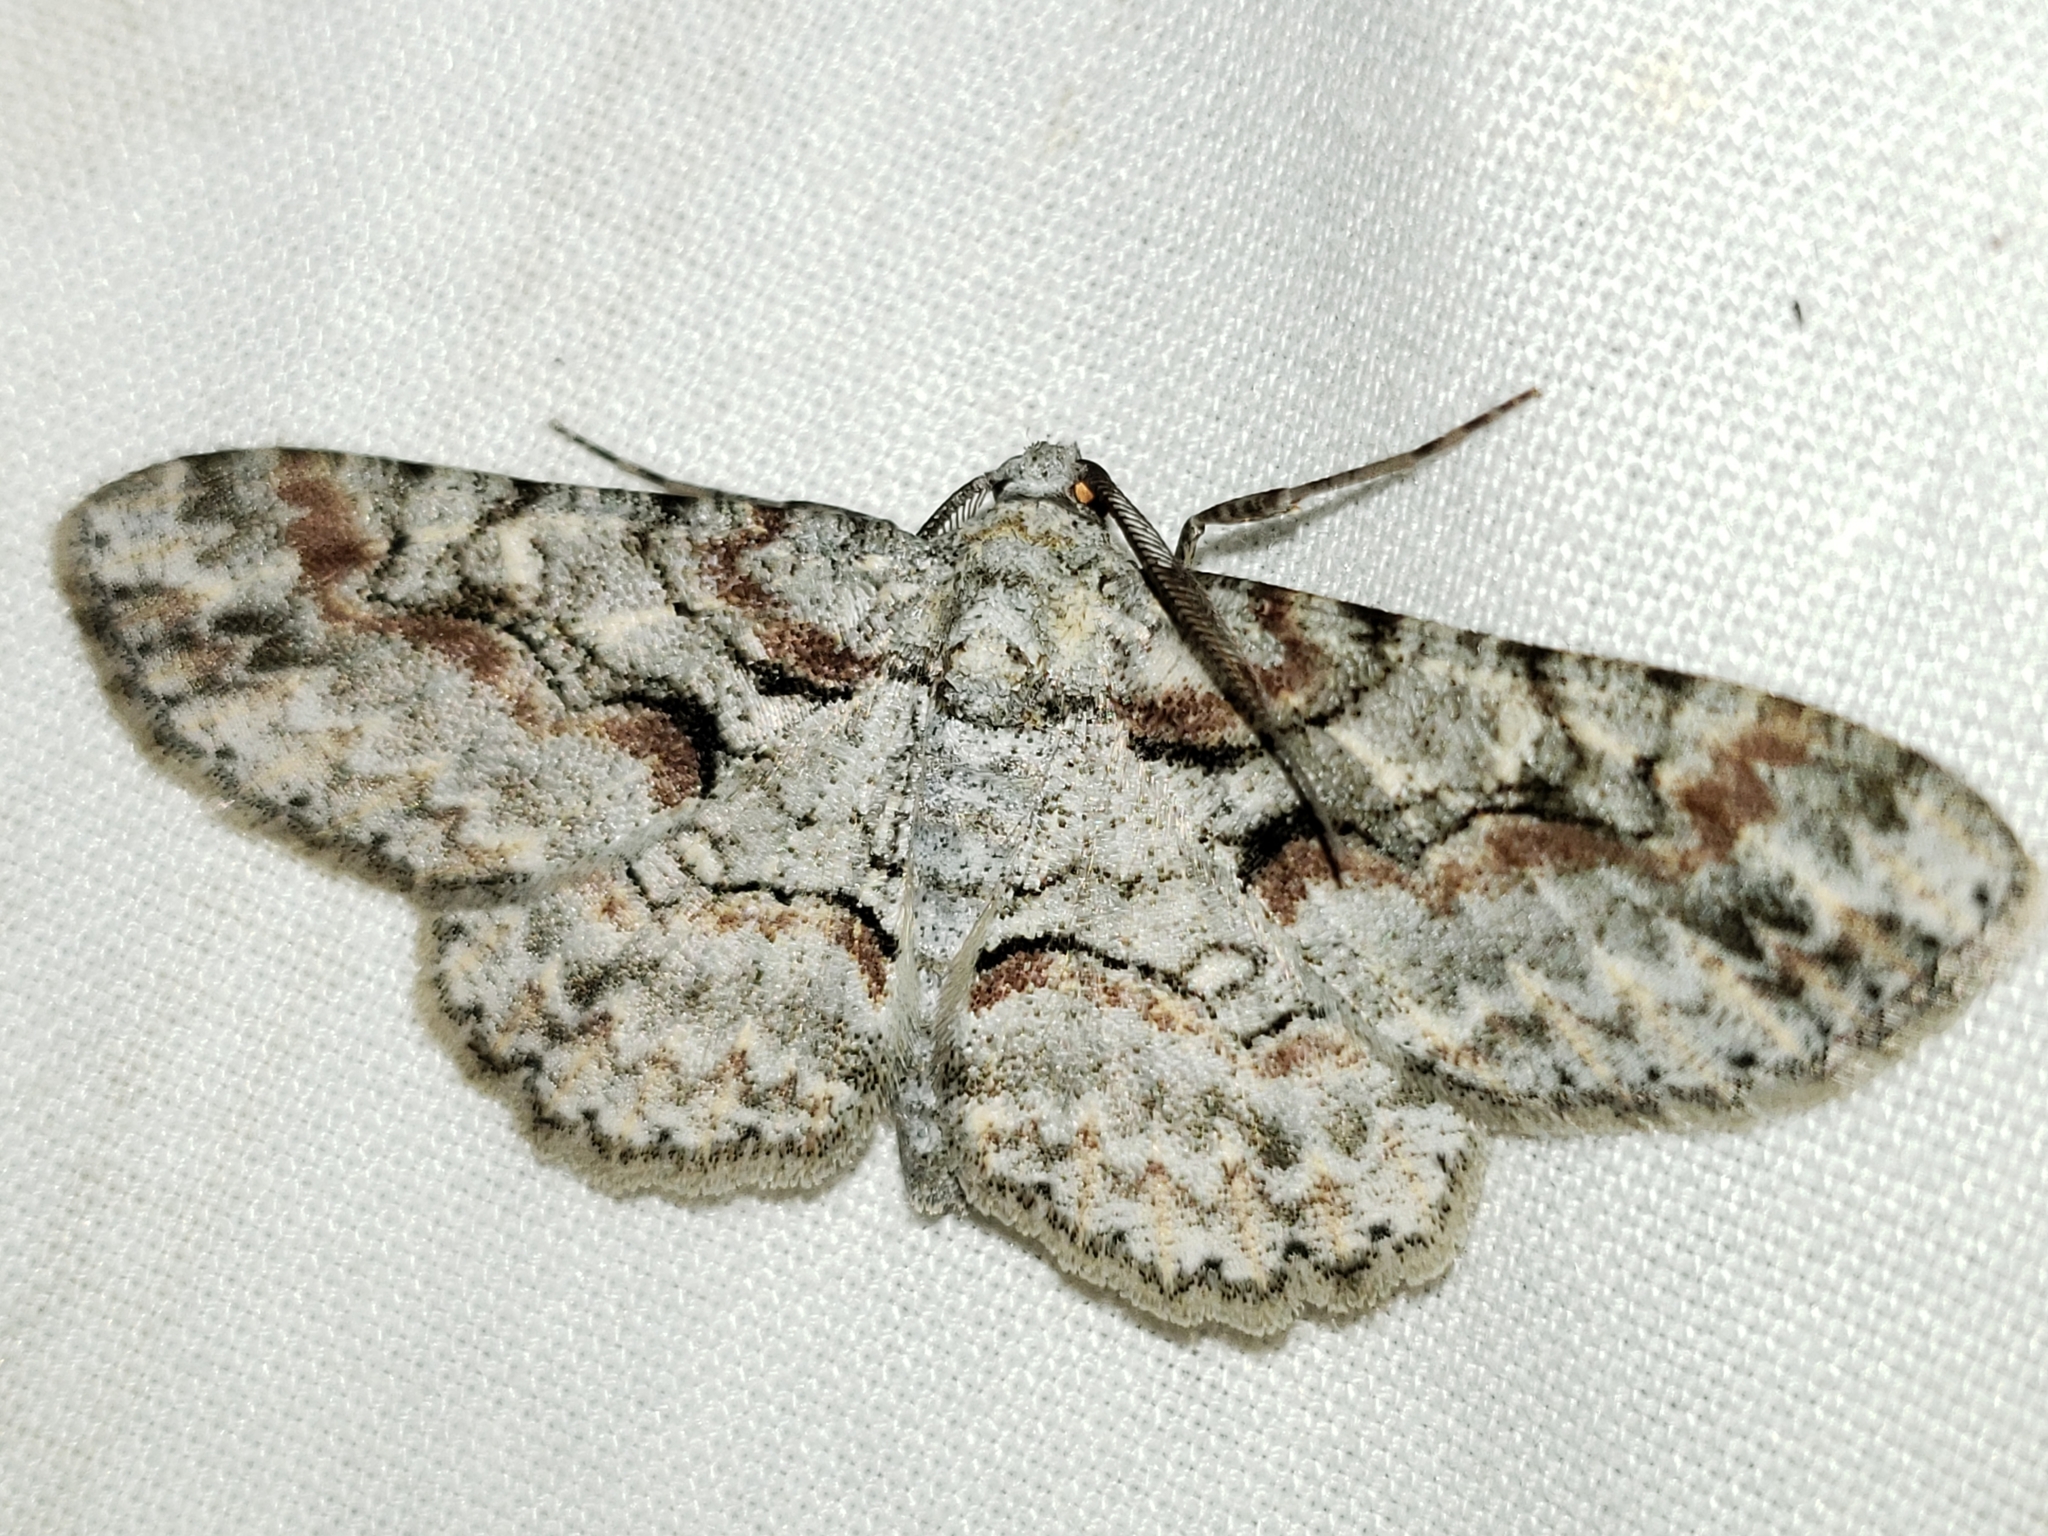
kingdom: Animalia
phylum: Arthropoda
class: Insecta
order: Lepidoptera
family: Geometridae
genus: Iridopsis
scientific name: Iridopsis defectaria
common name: Brown-shaded gray
